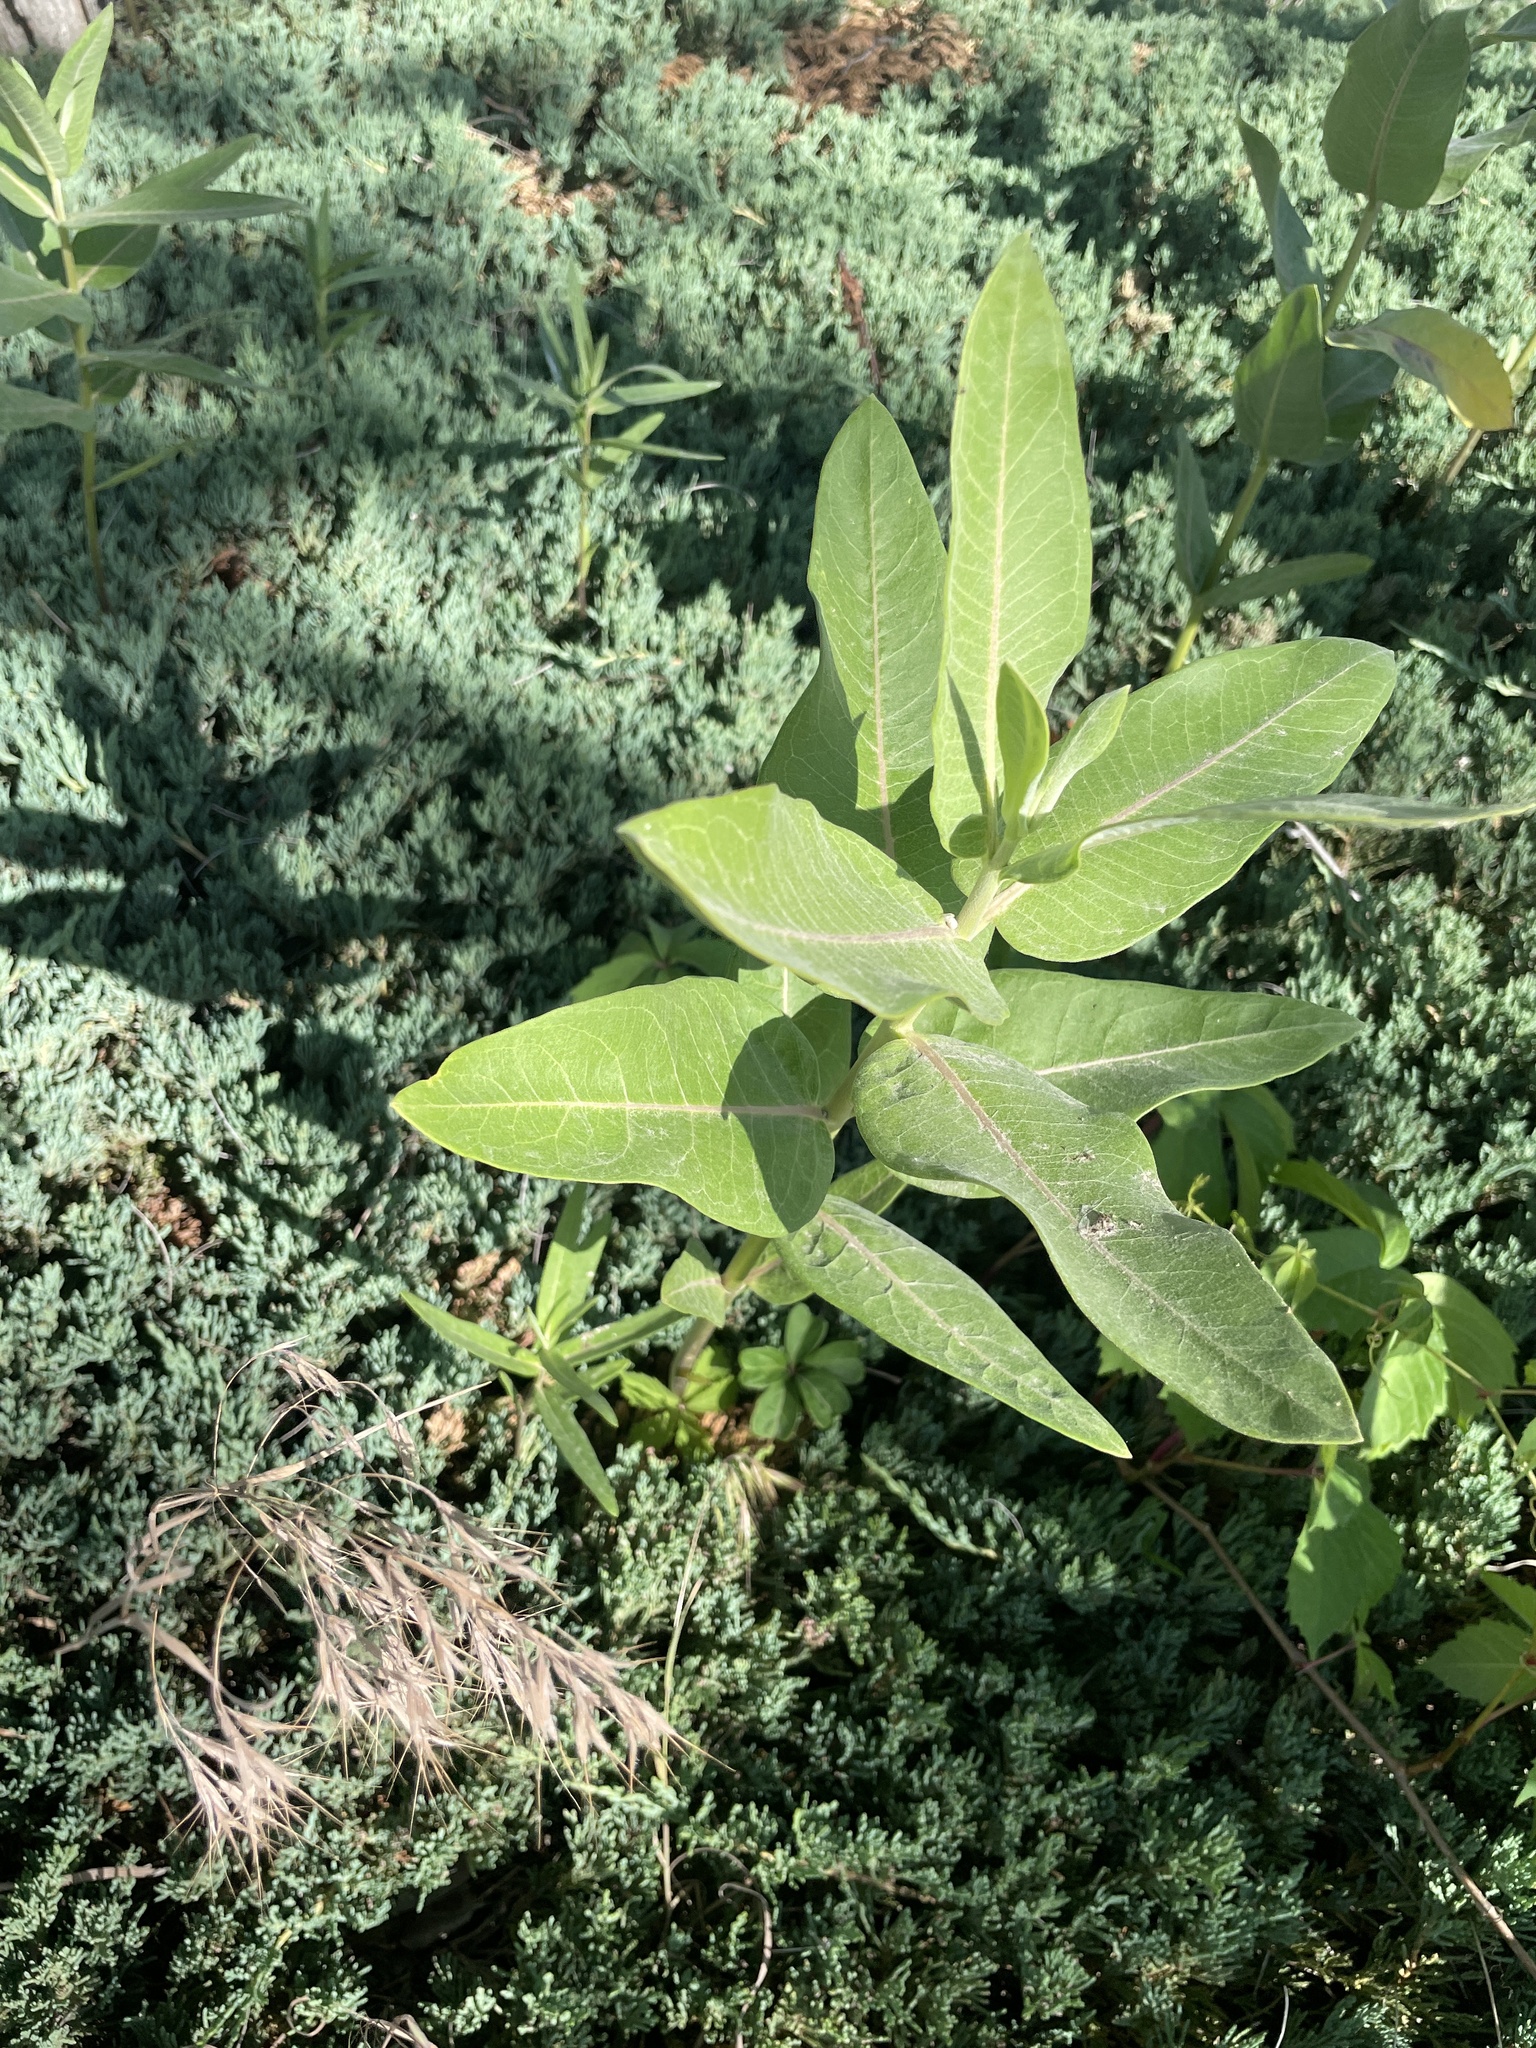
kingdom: Plantae
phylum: Tracheophyta
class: Magnoliopsida
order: Gentianales
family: Apocynaceae
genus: Asclepias
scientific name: Asclepias speciosa
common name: Showy milkweed
